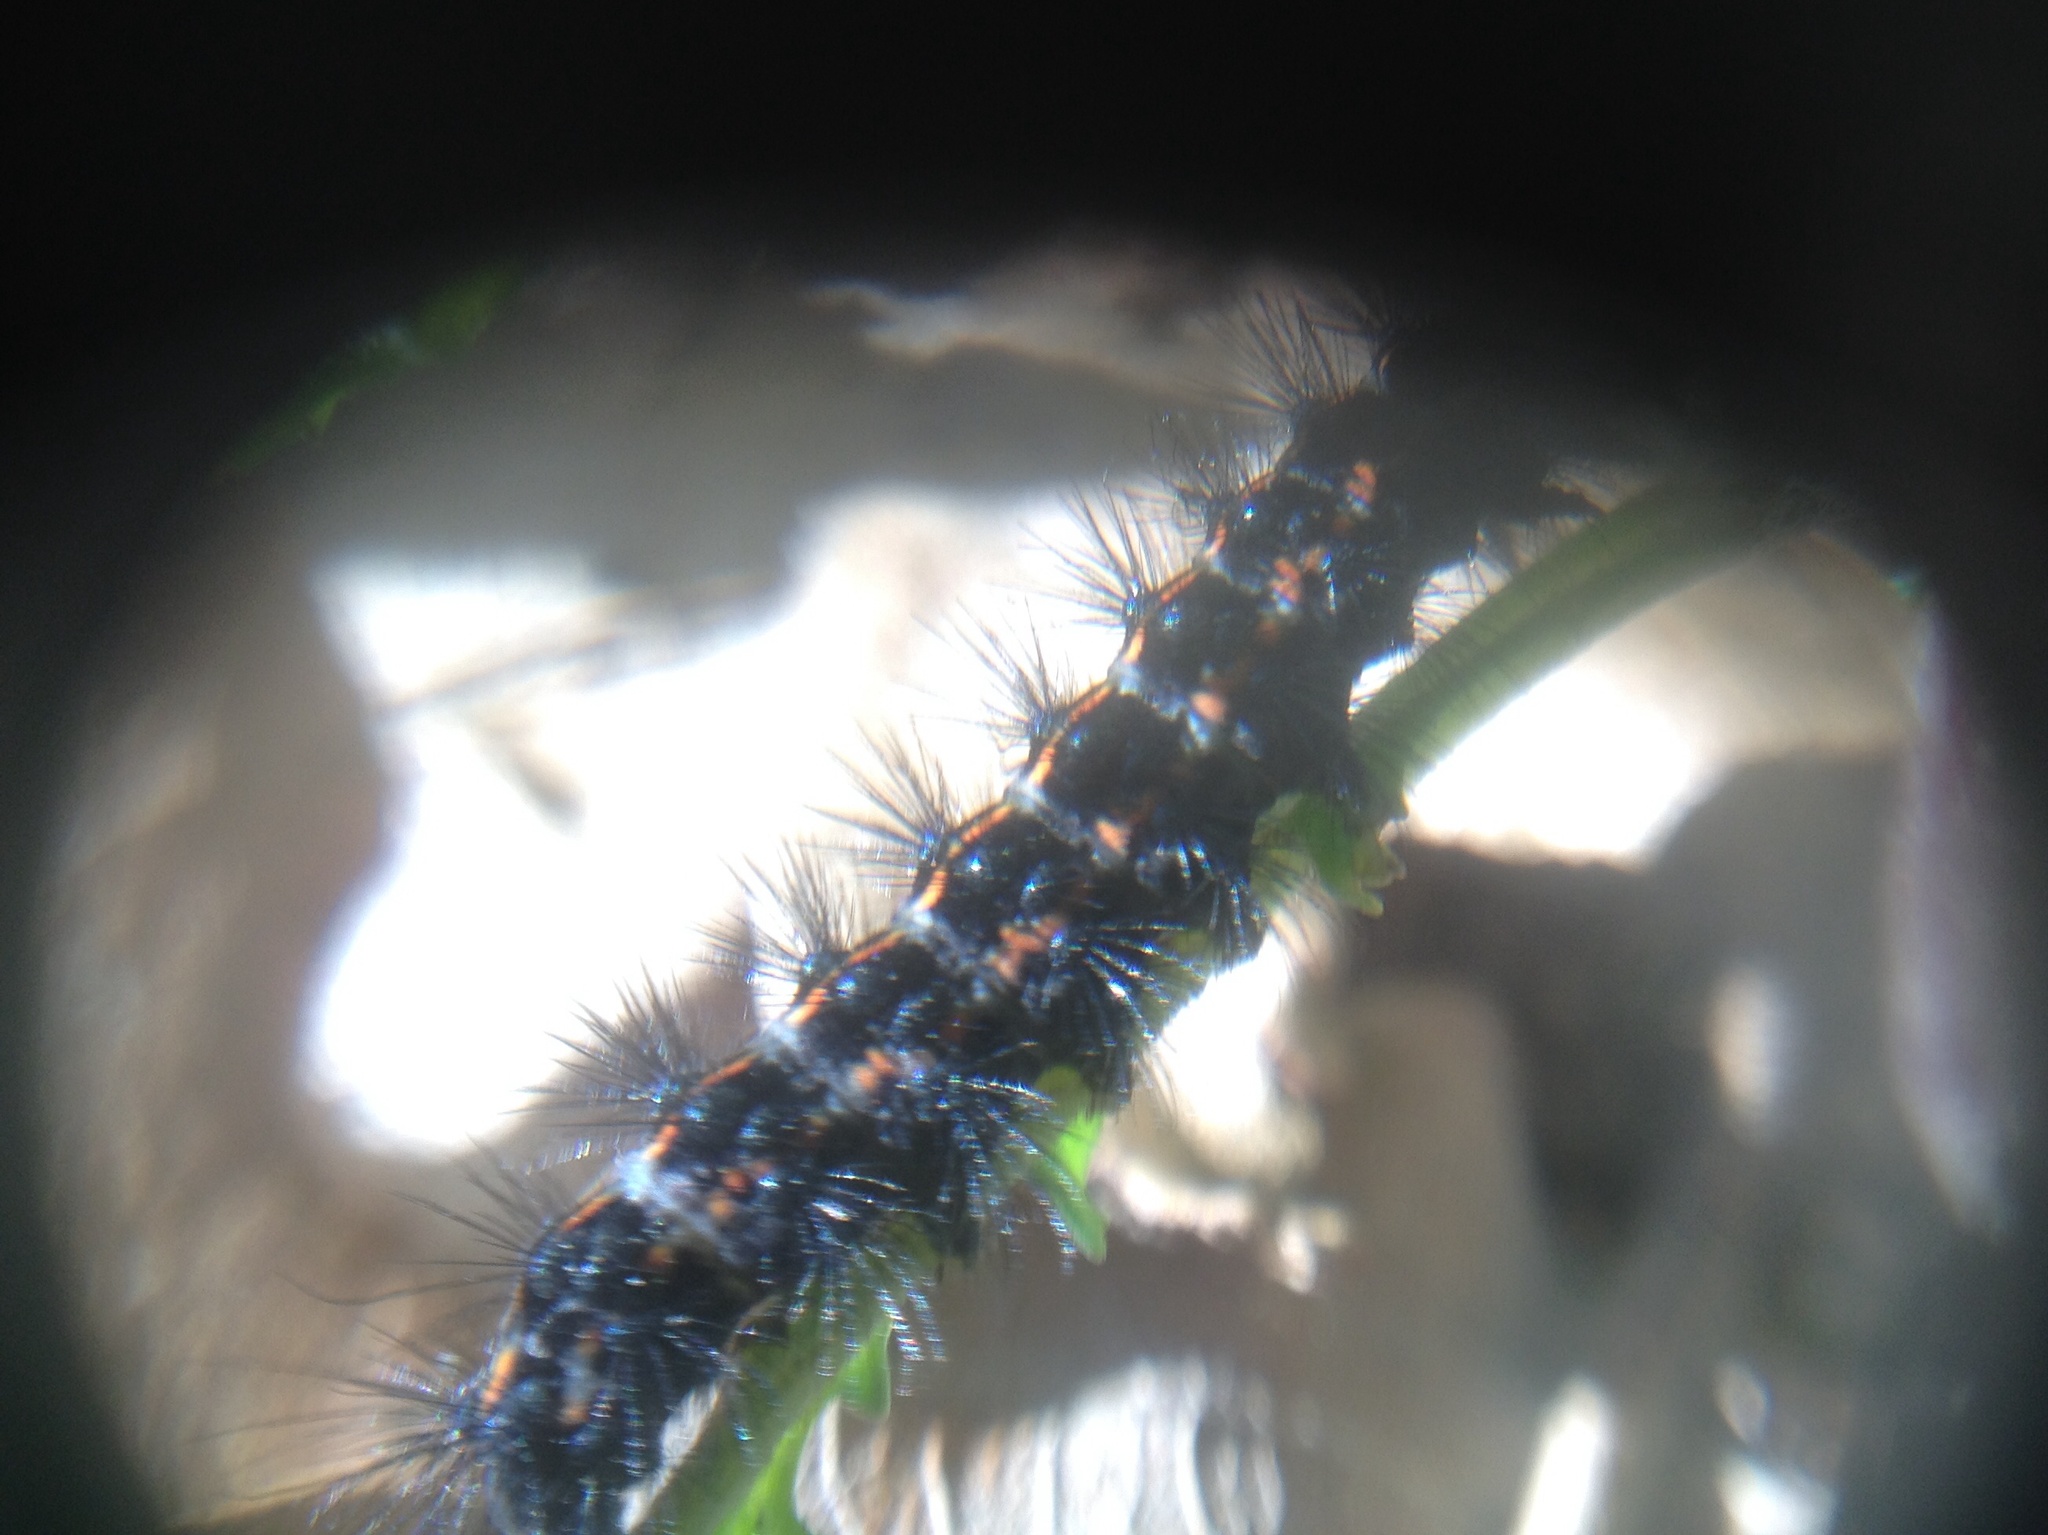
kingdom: Animalia
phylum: Arthropoda
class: Insecta
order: Lepidoptera
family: Erebidae
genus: Nyctemera
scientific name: Nyctemera annulatum
